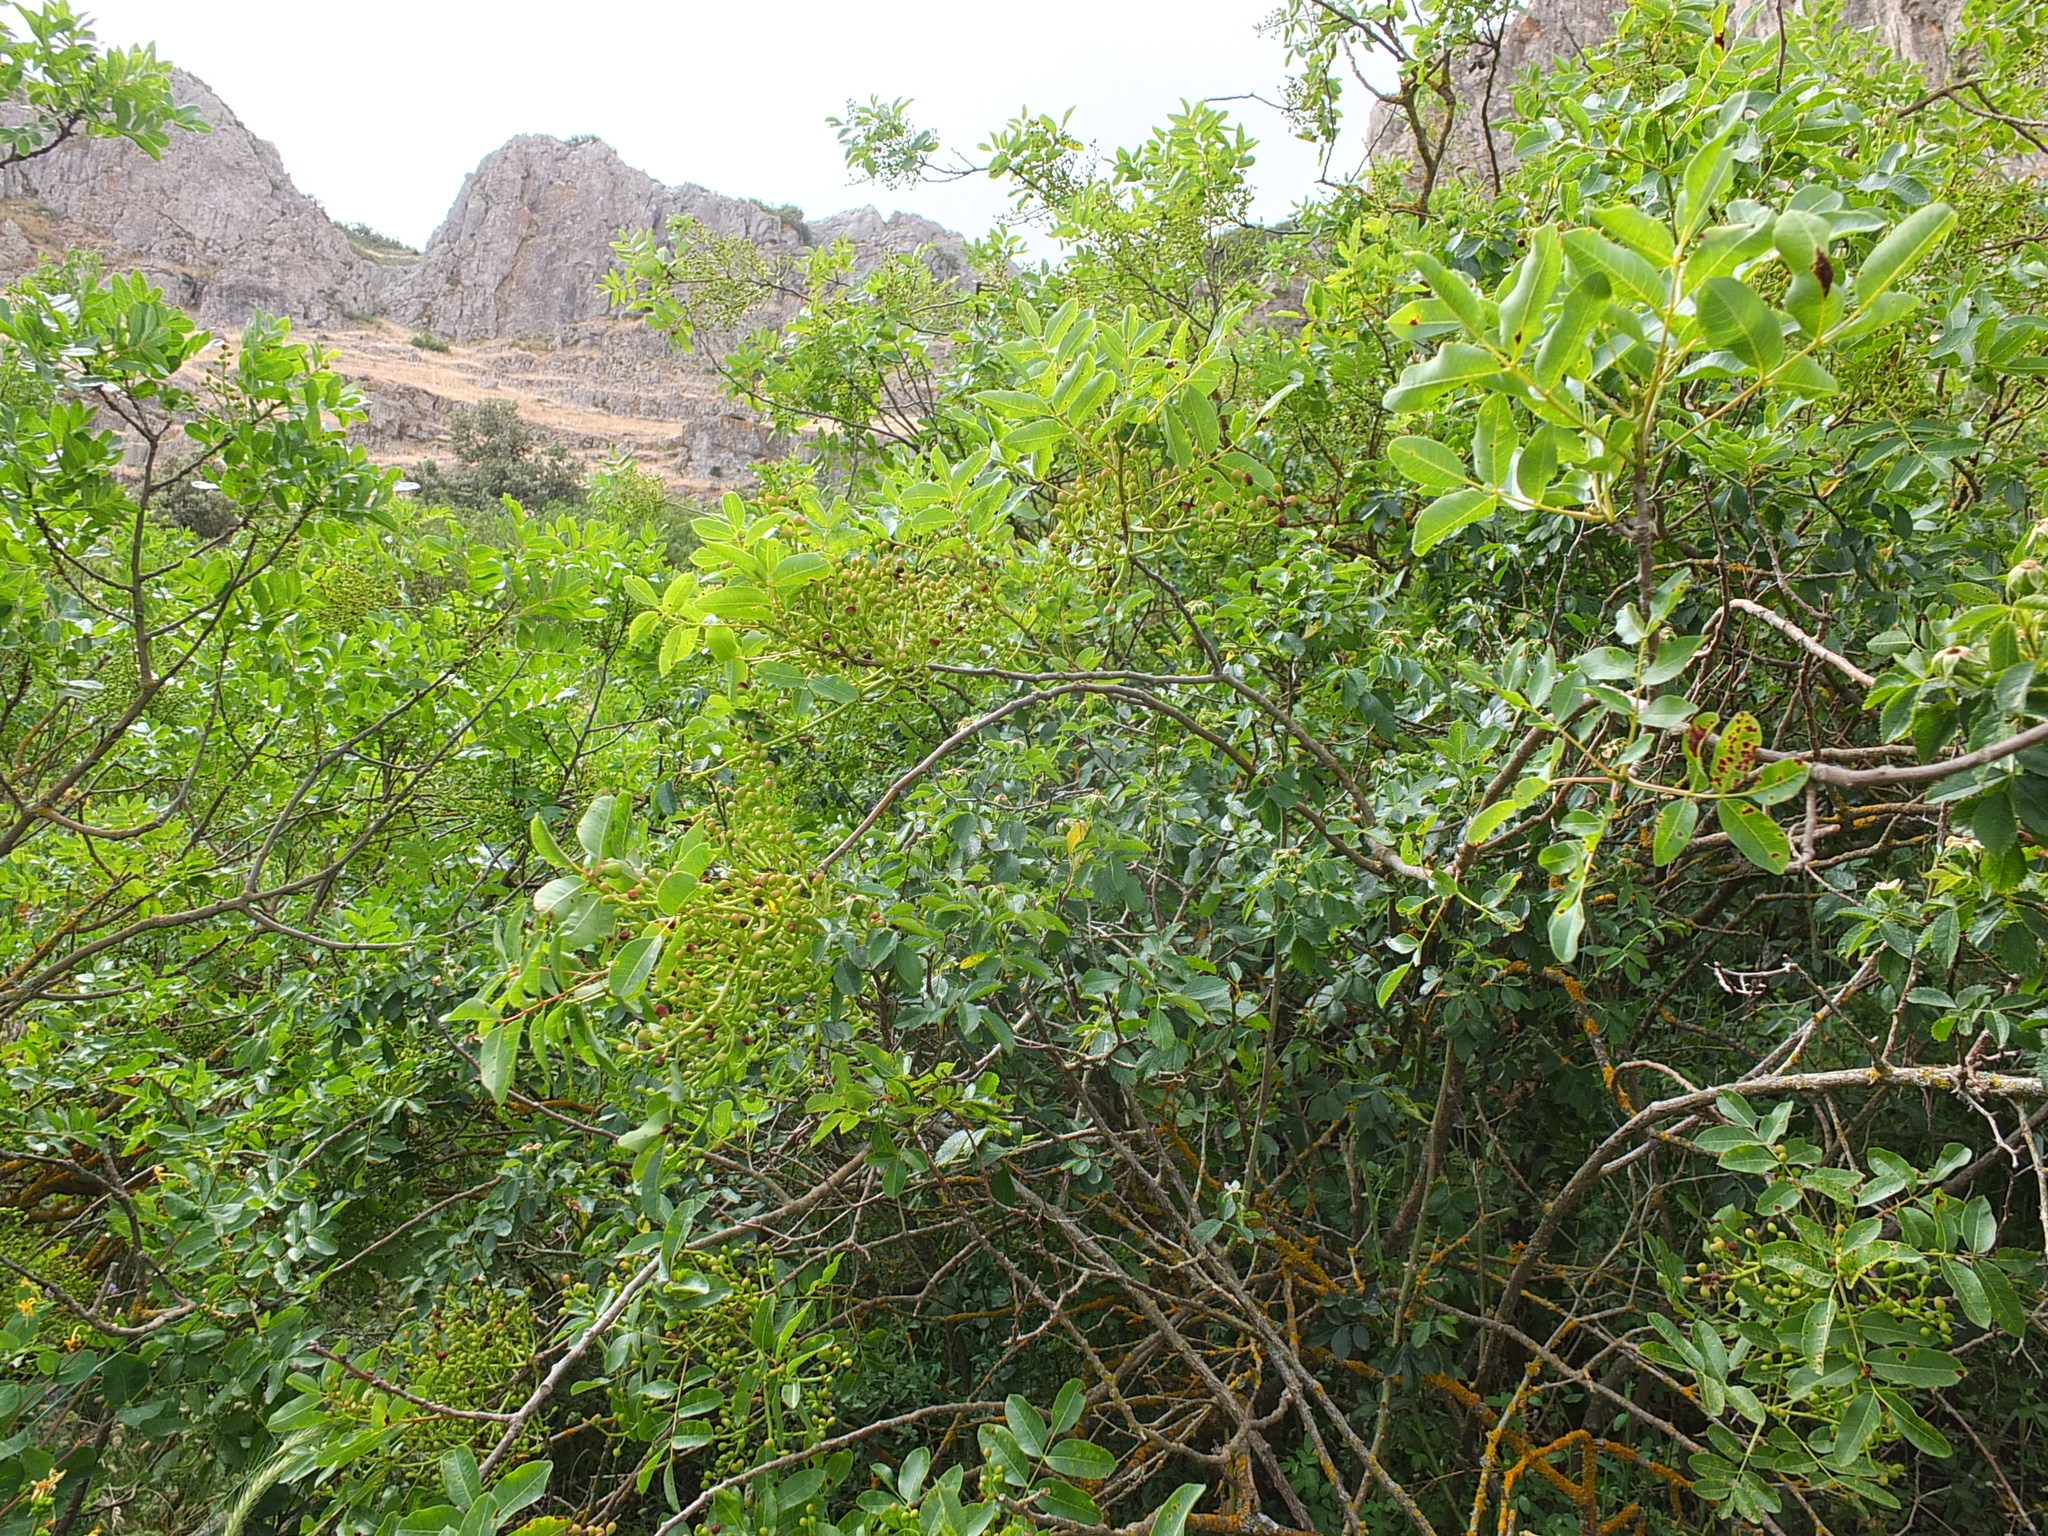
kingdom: Plantae
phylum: Tracheophyta
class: Magnoliopsida
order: Sapindales
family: Anacardiaceae
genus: Pistacia
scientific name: Pistacia terebinthus
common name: Terebinth
